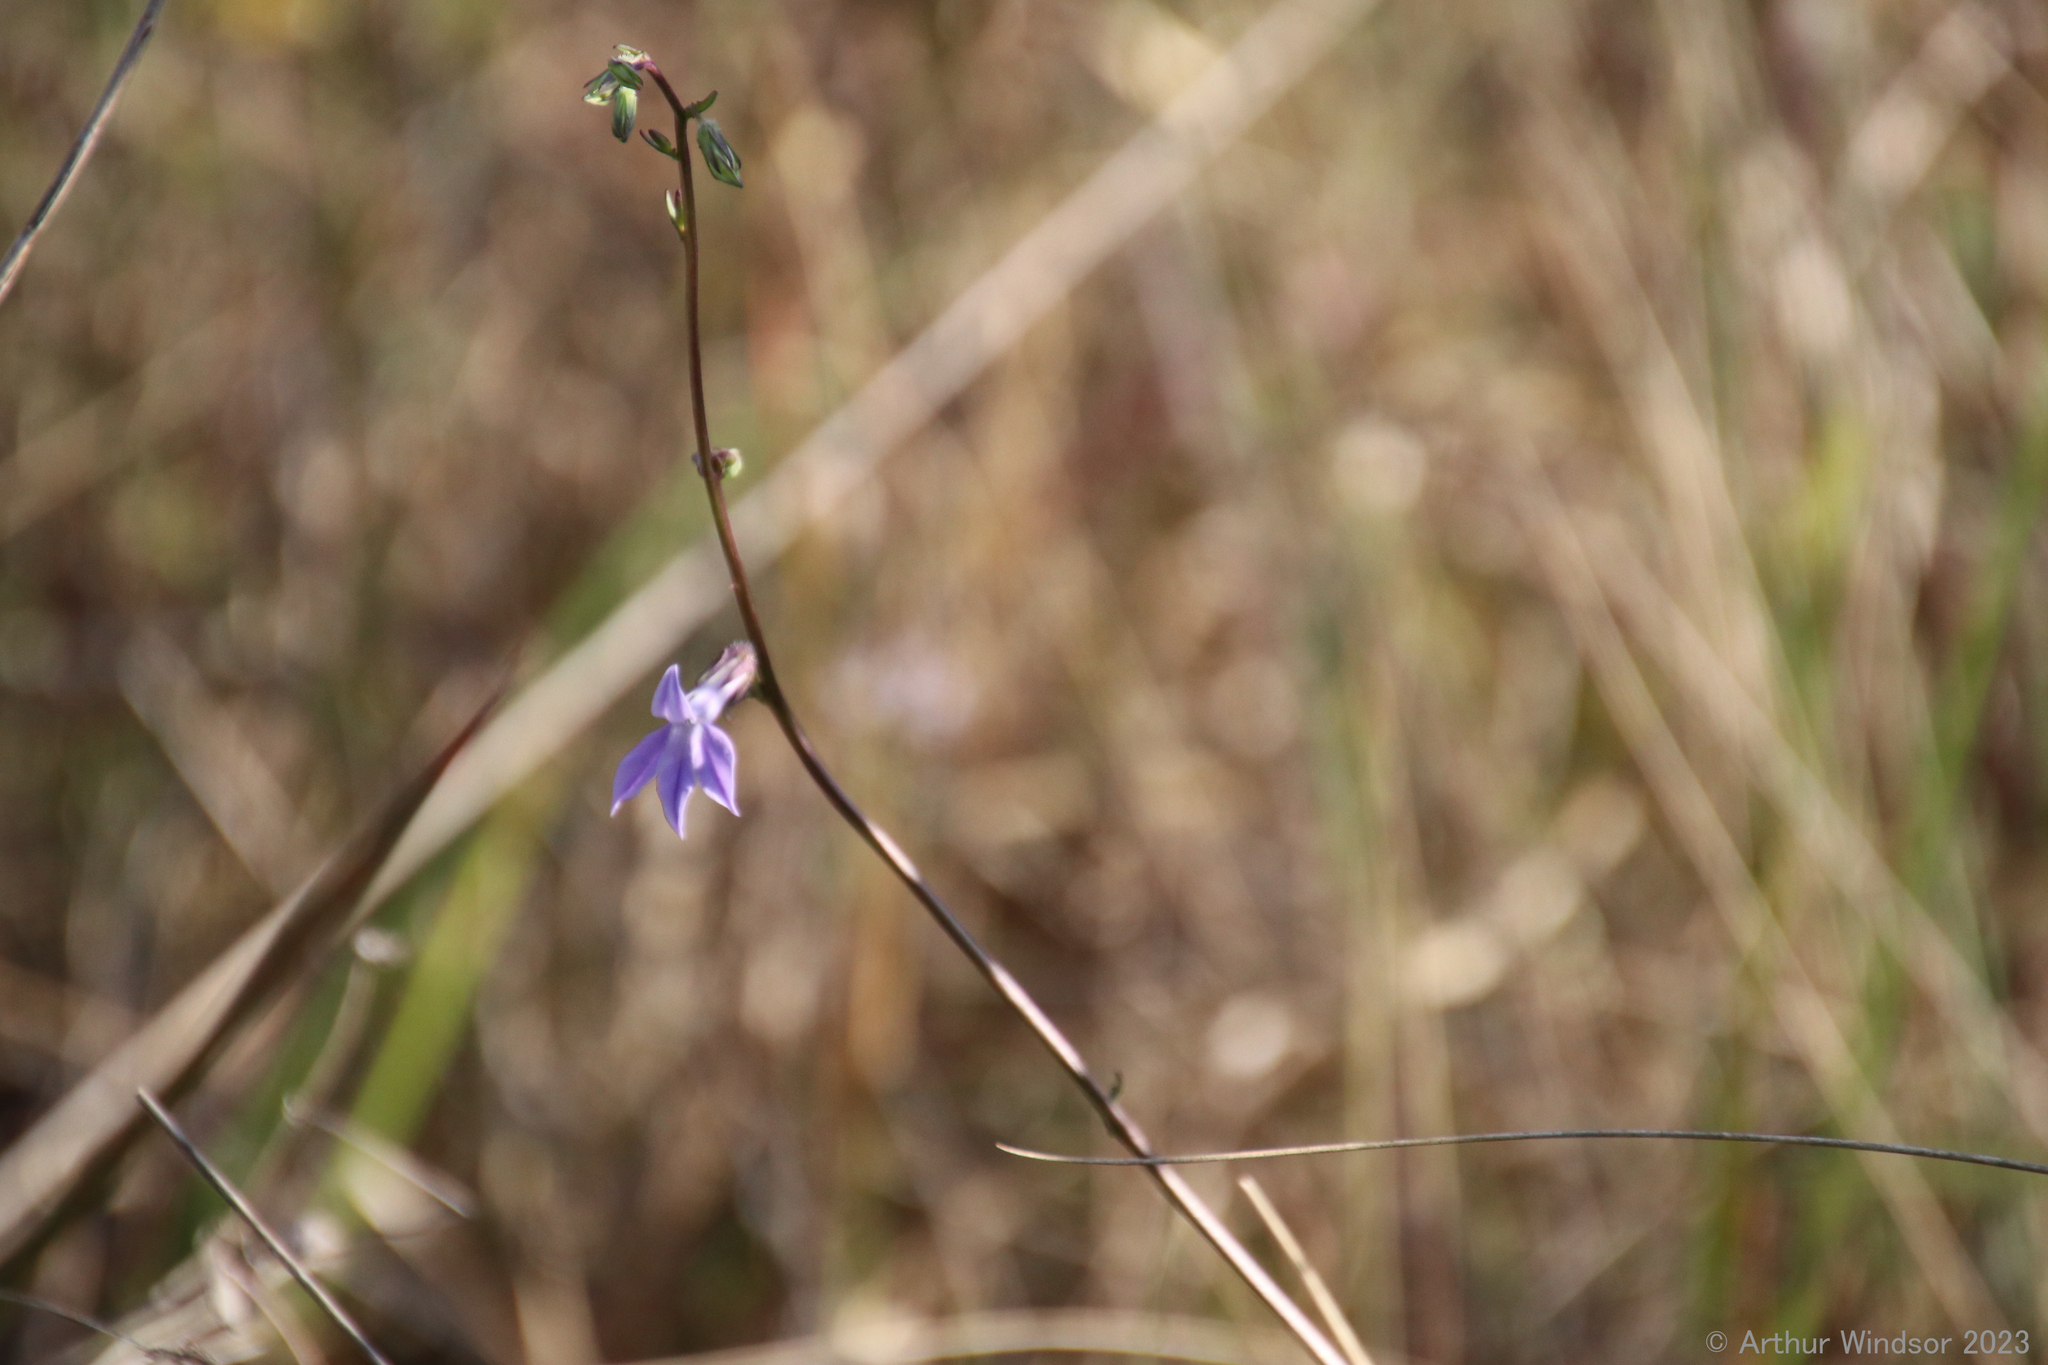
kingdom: Plantae
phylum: Tracheophyta
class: Magnoliopsida
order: Asterales
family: Campanulaceae
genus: Lobelia
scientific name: Lobelia glandulosa
